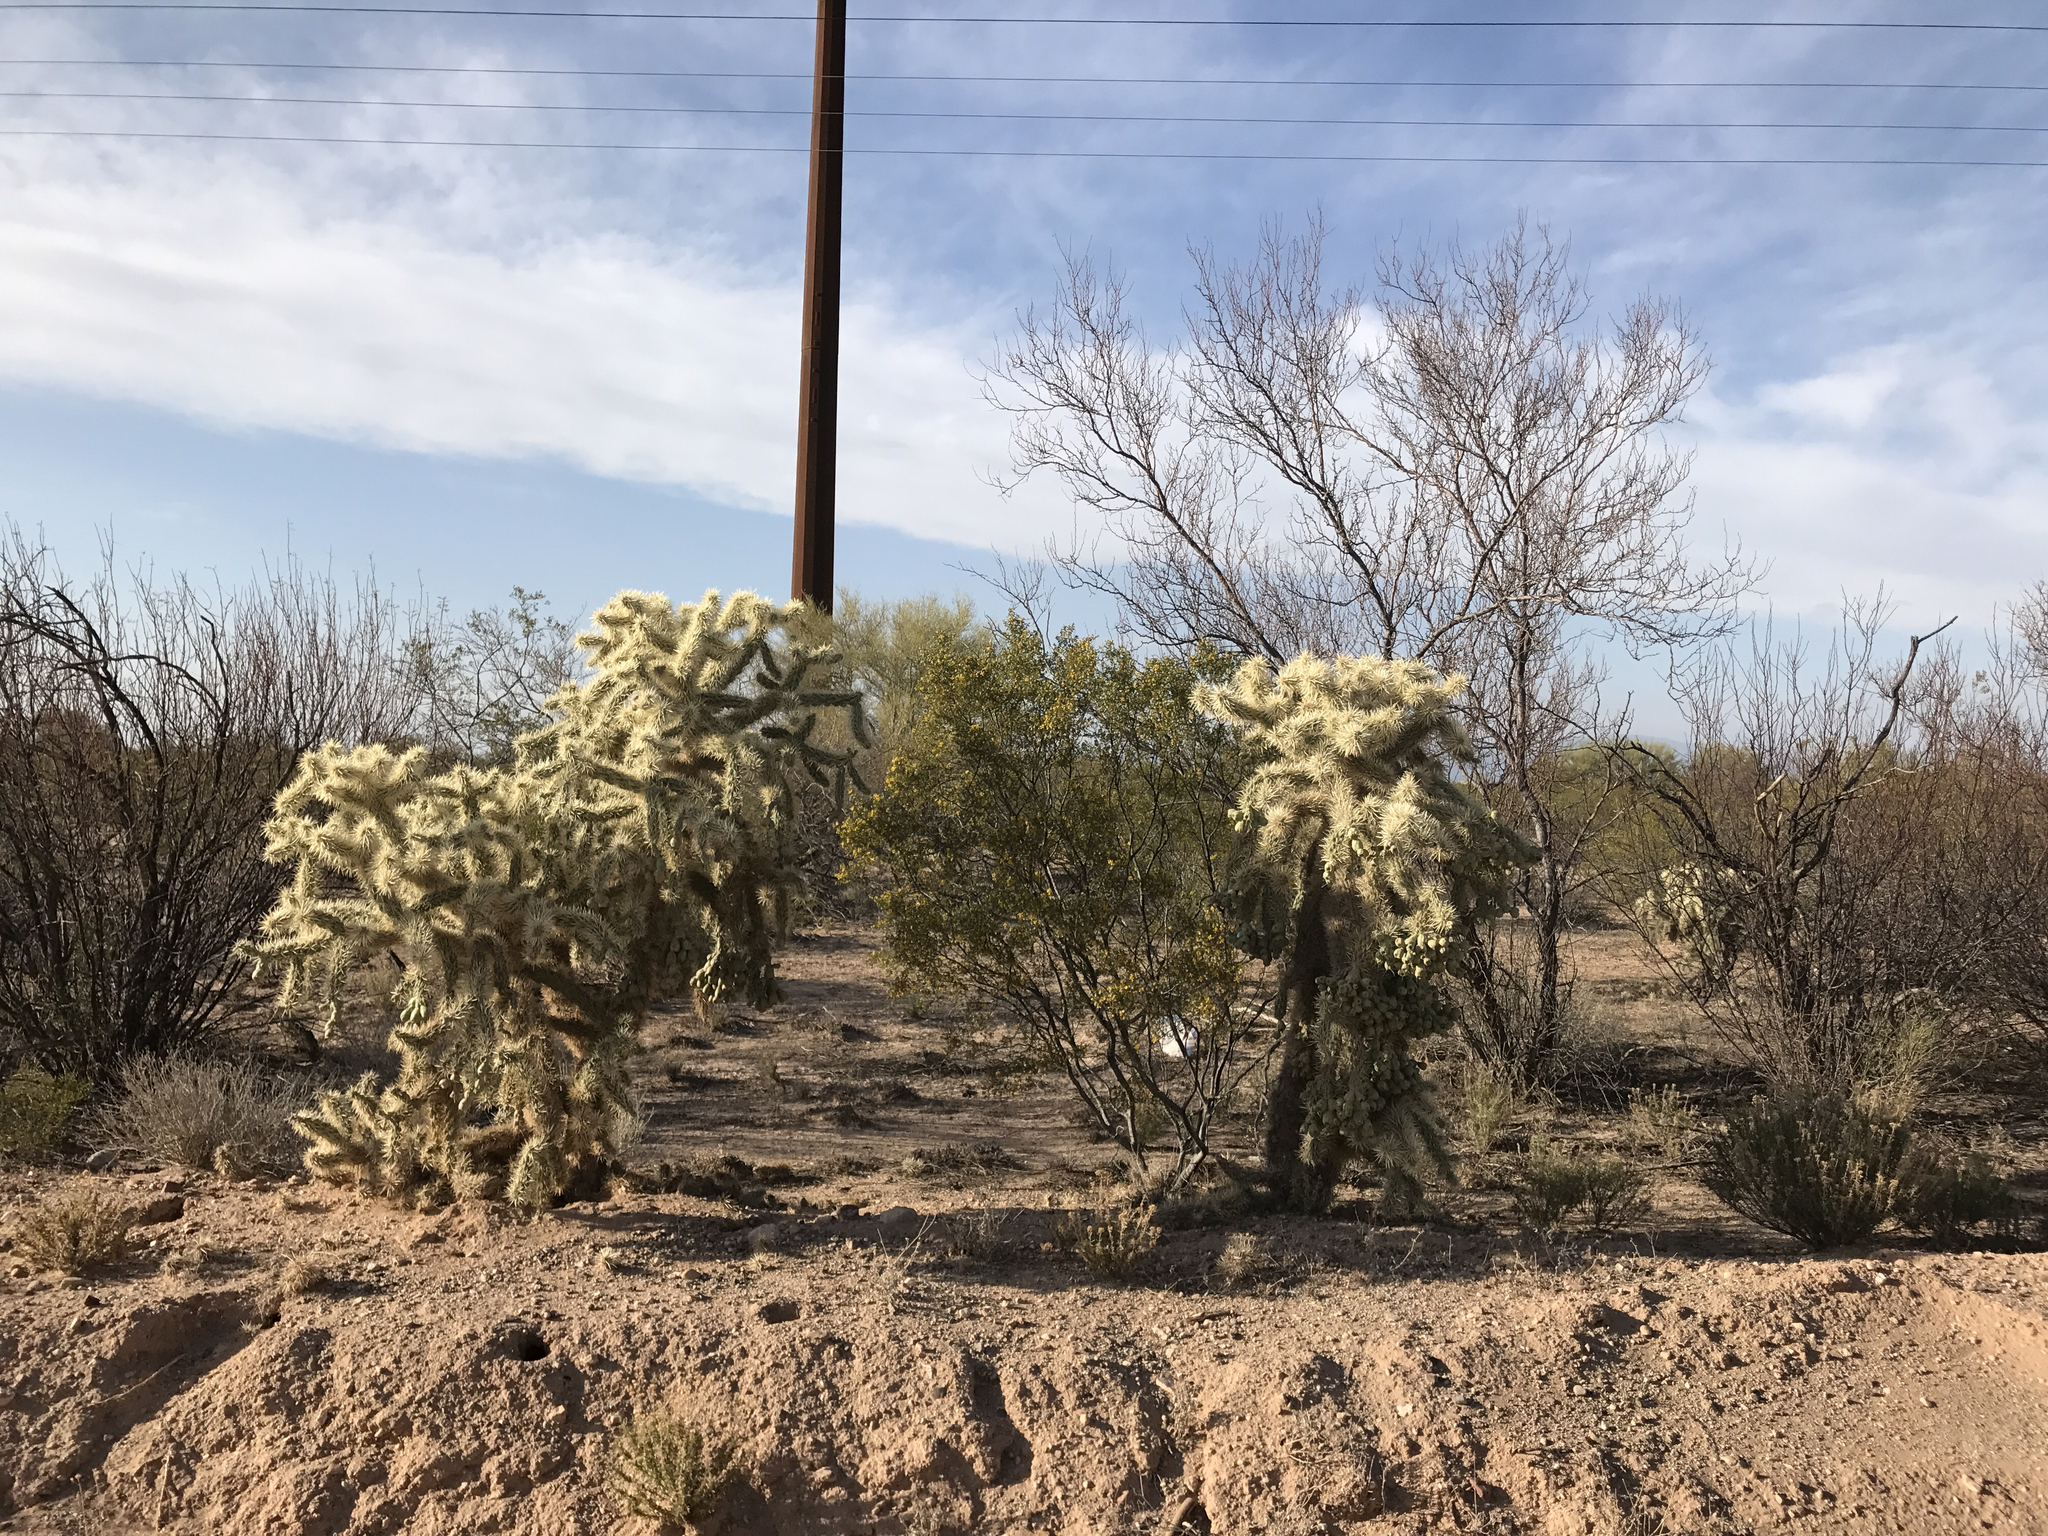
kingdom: Plantae
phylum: Tracheophyta
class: Magnoliopsida
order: Caryophyllales
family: Cactaceae
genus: Cylindropuntia
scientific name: Cylindropuntia fulgida
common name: Jumping cholla
